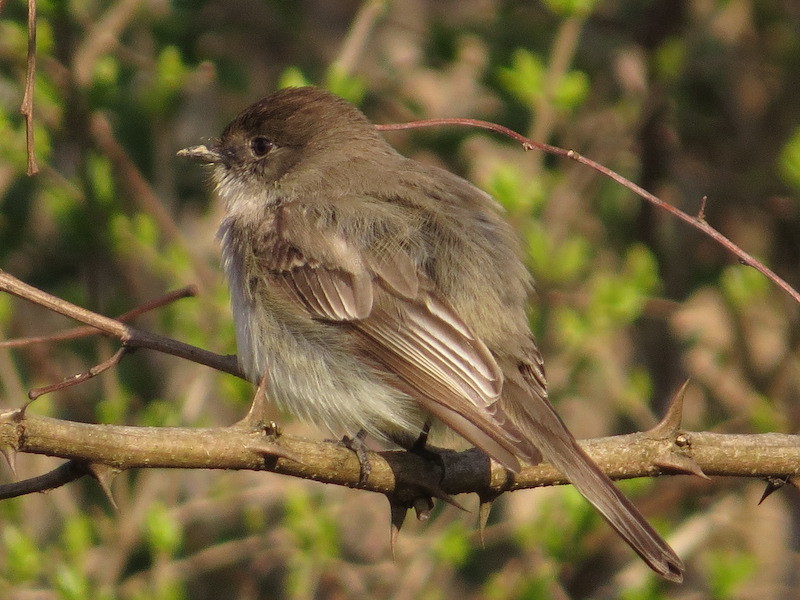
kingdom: Animalia
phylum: Chordata
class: Aves
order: Passeriformes
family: Tyrannidae
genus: Sayornis
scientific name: Sayornis phoebe
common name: Eastern phoebe
